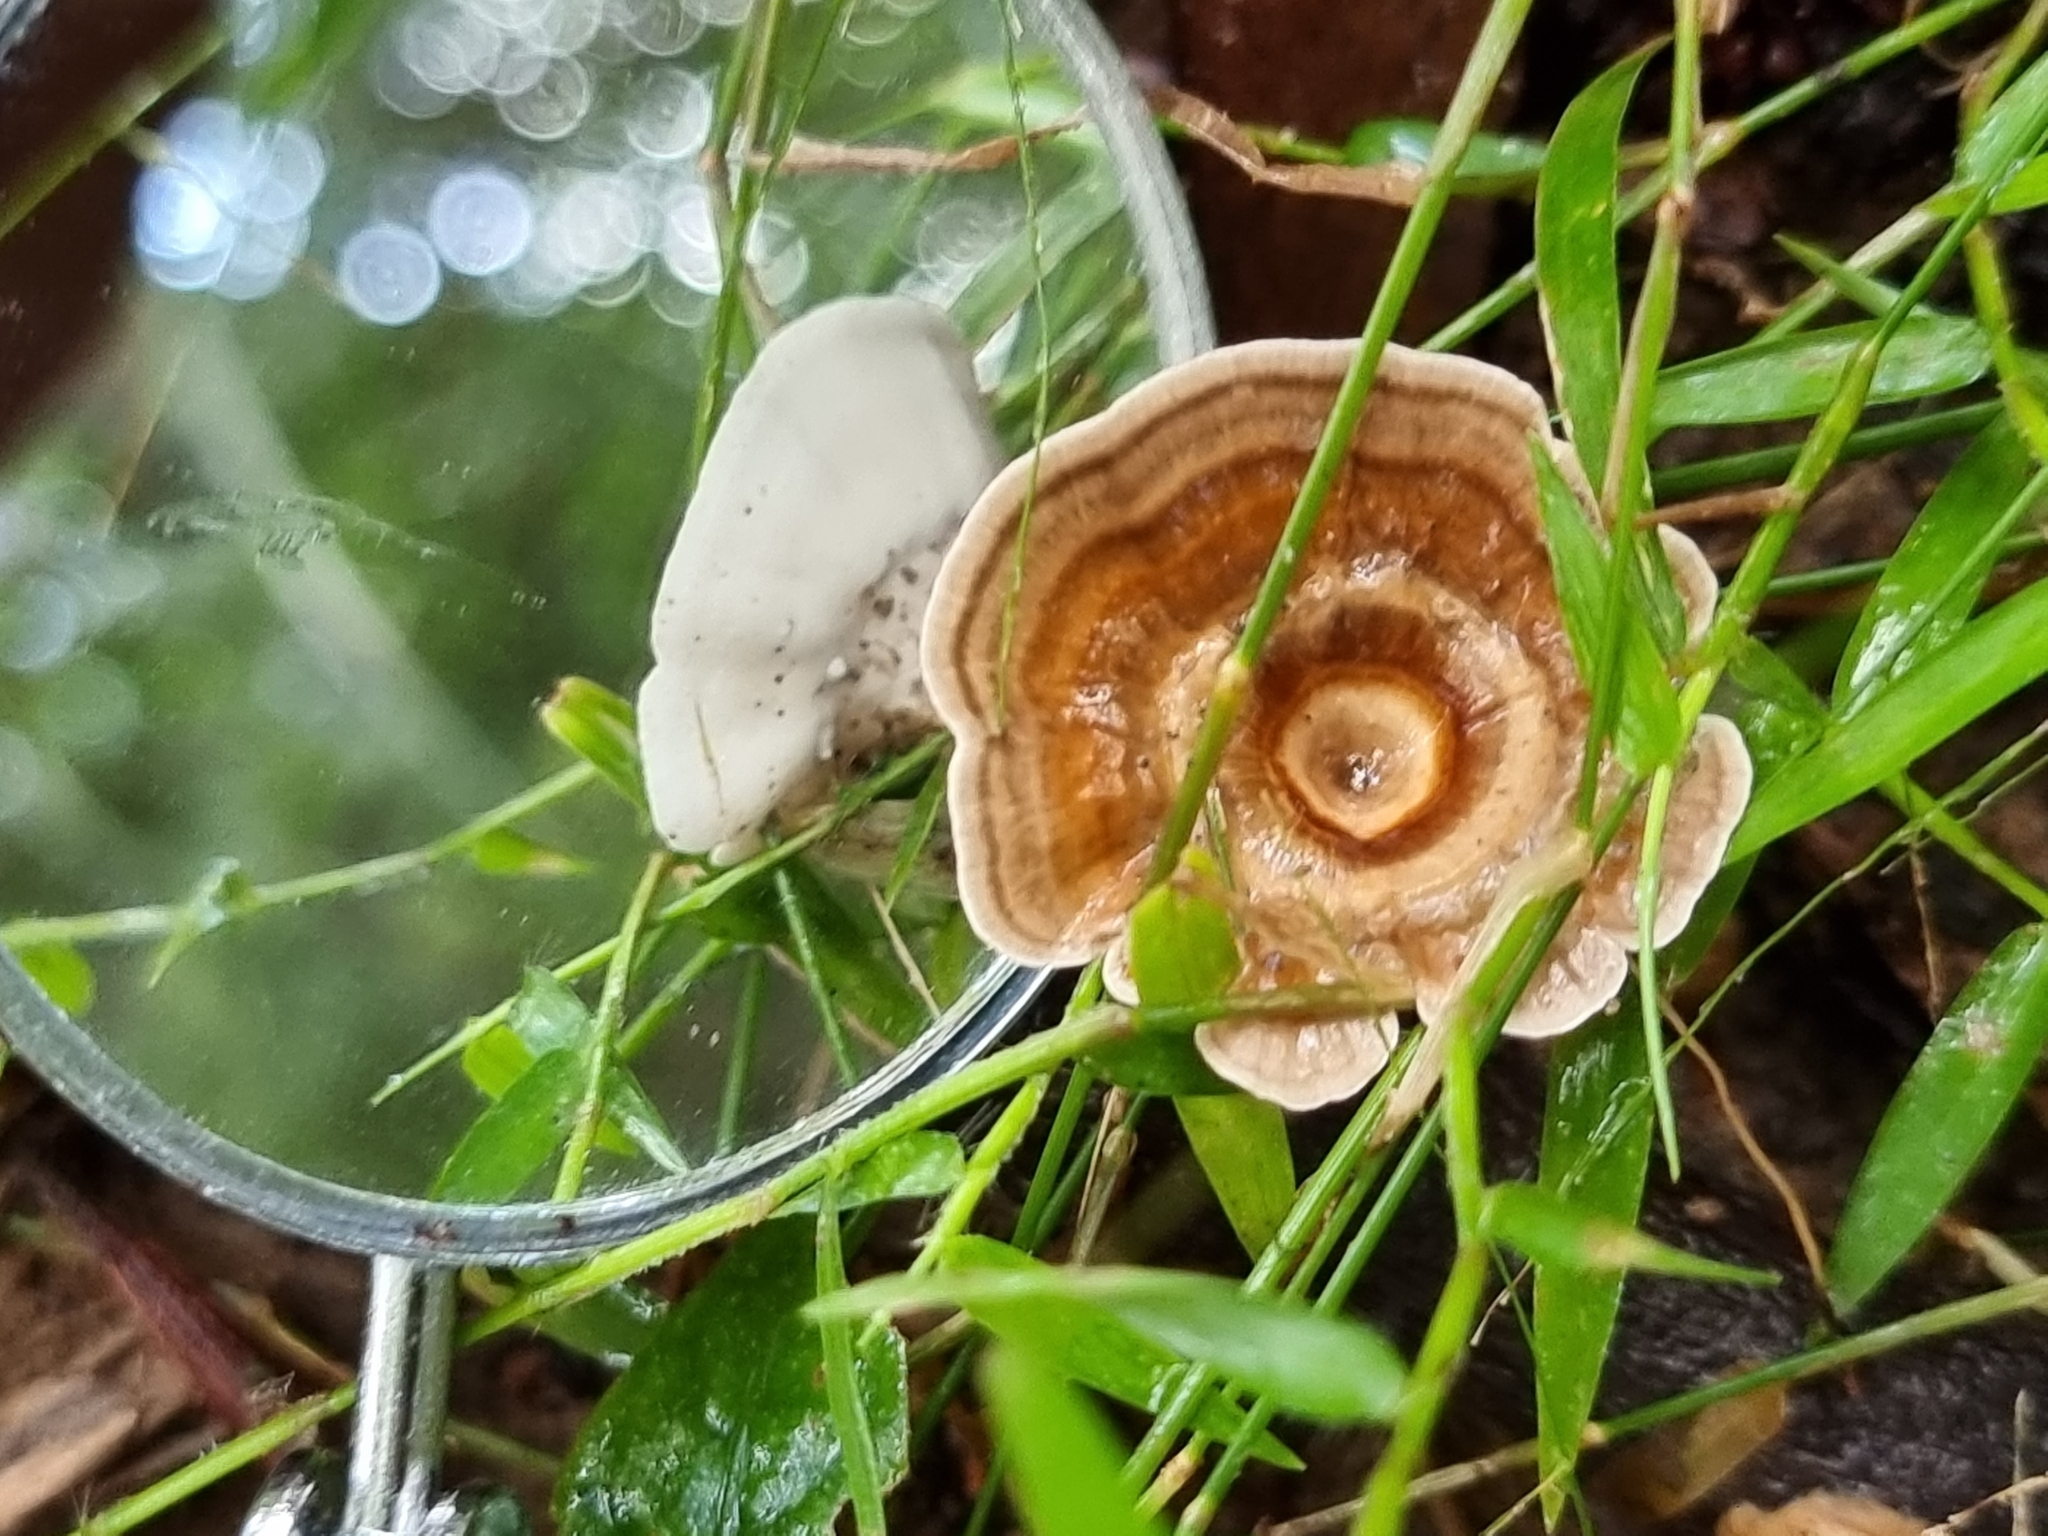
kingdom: Fungi
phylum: Basidiomycota
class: Agaricomycetes
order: Polyporales
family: Polyporaceae
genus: Microporus
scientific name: Microporus xanthopus
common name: Yellow-stemmed micropore
